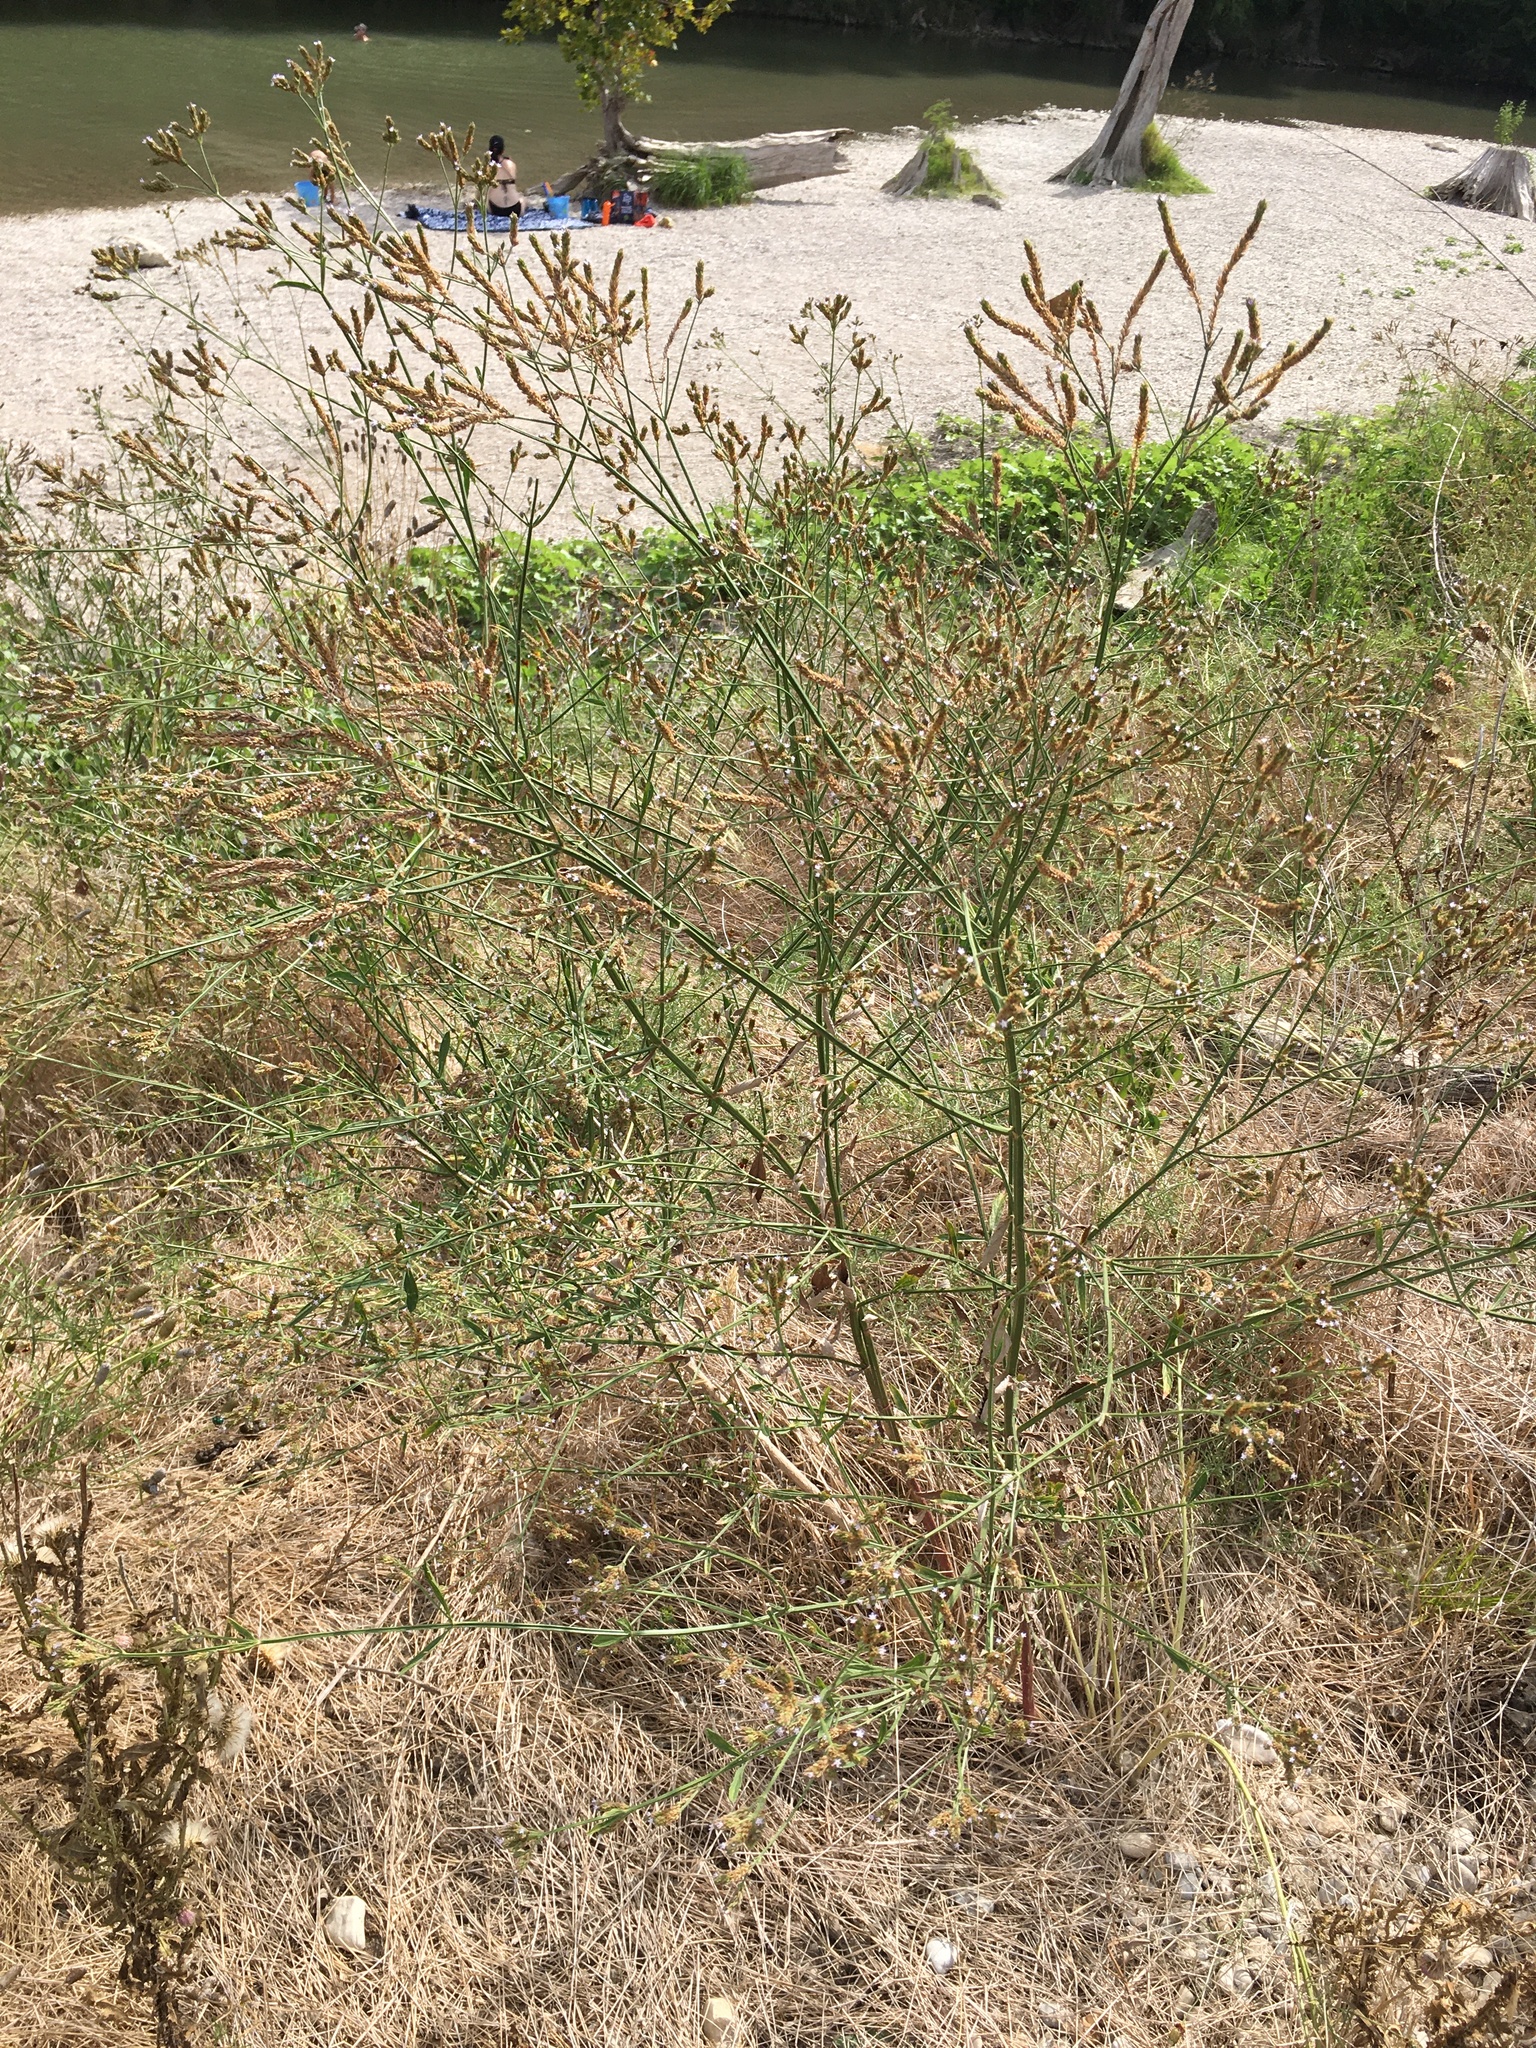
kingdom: Plantae
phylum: Tracheophyta
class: Magnoliopsida
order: Lamiales
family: Verbenaceae
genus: Verbena
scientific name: Verbena brasiliensis
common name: Brazilian vervain
